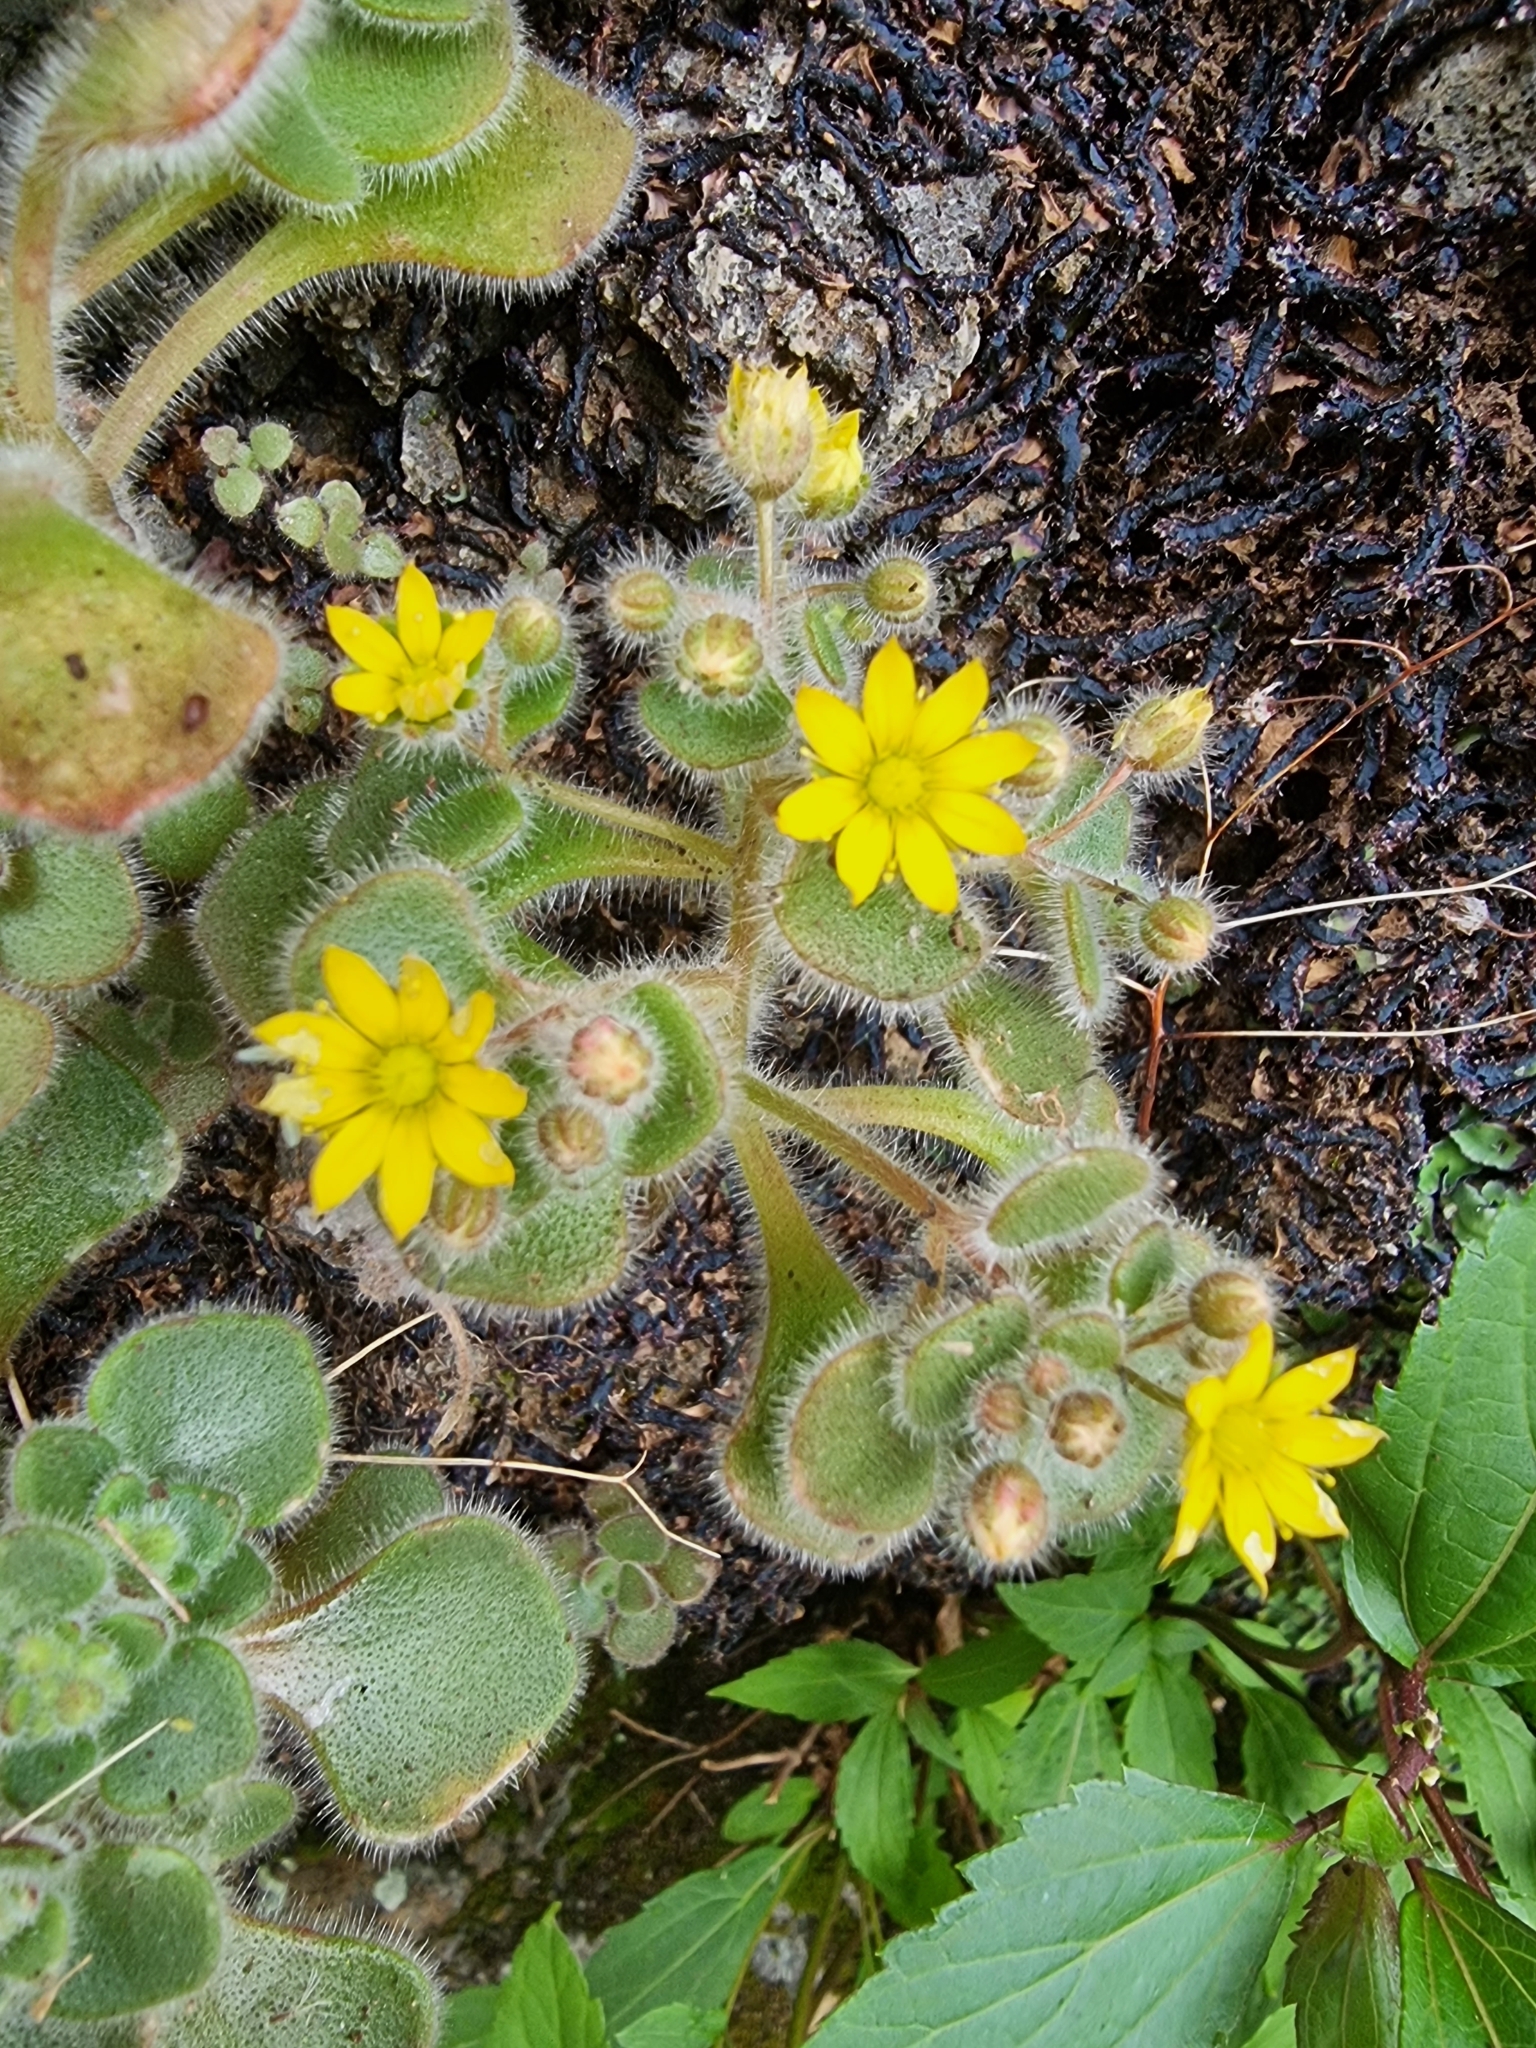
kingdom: Plantae
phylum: Tracheophyta
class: Magnoliopsida
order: Saxifragales
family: Crassulaceae
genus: Aichryson
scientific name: Aichryson villosum
